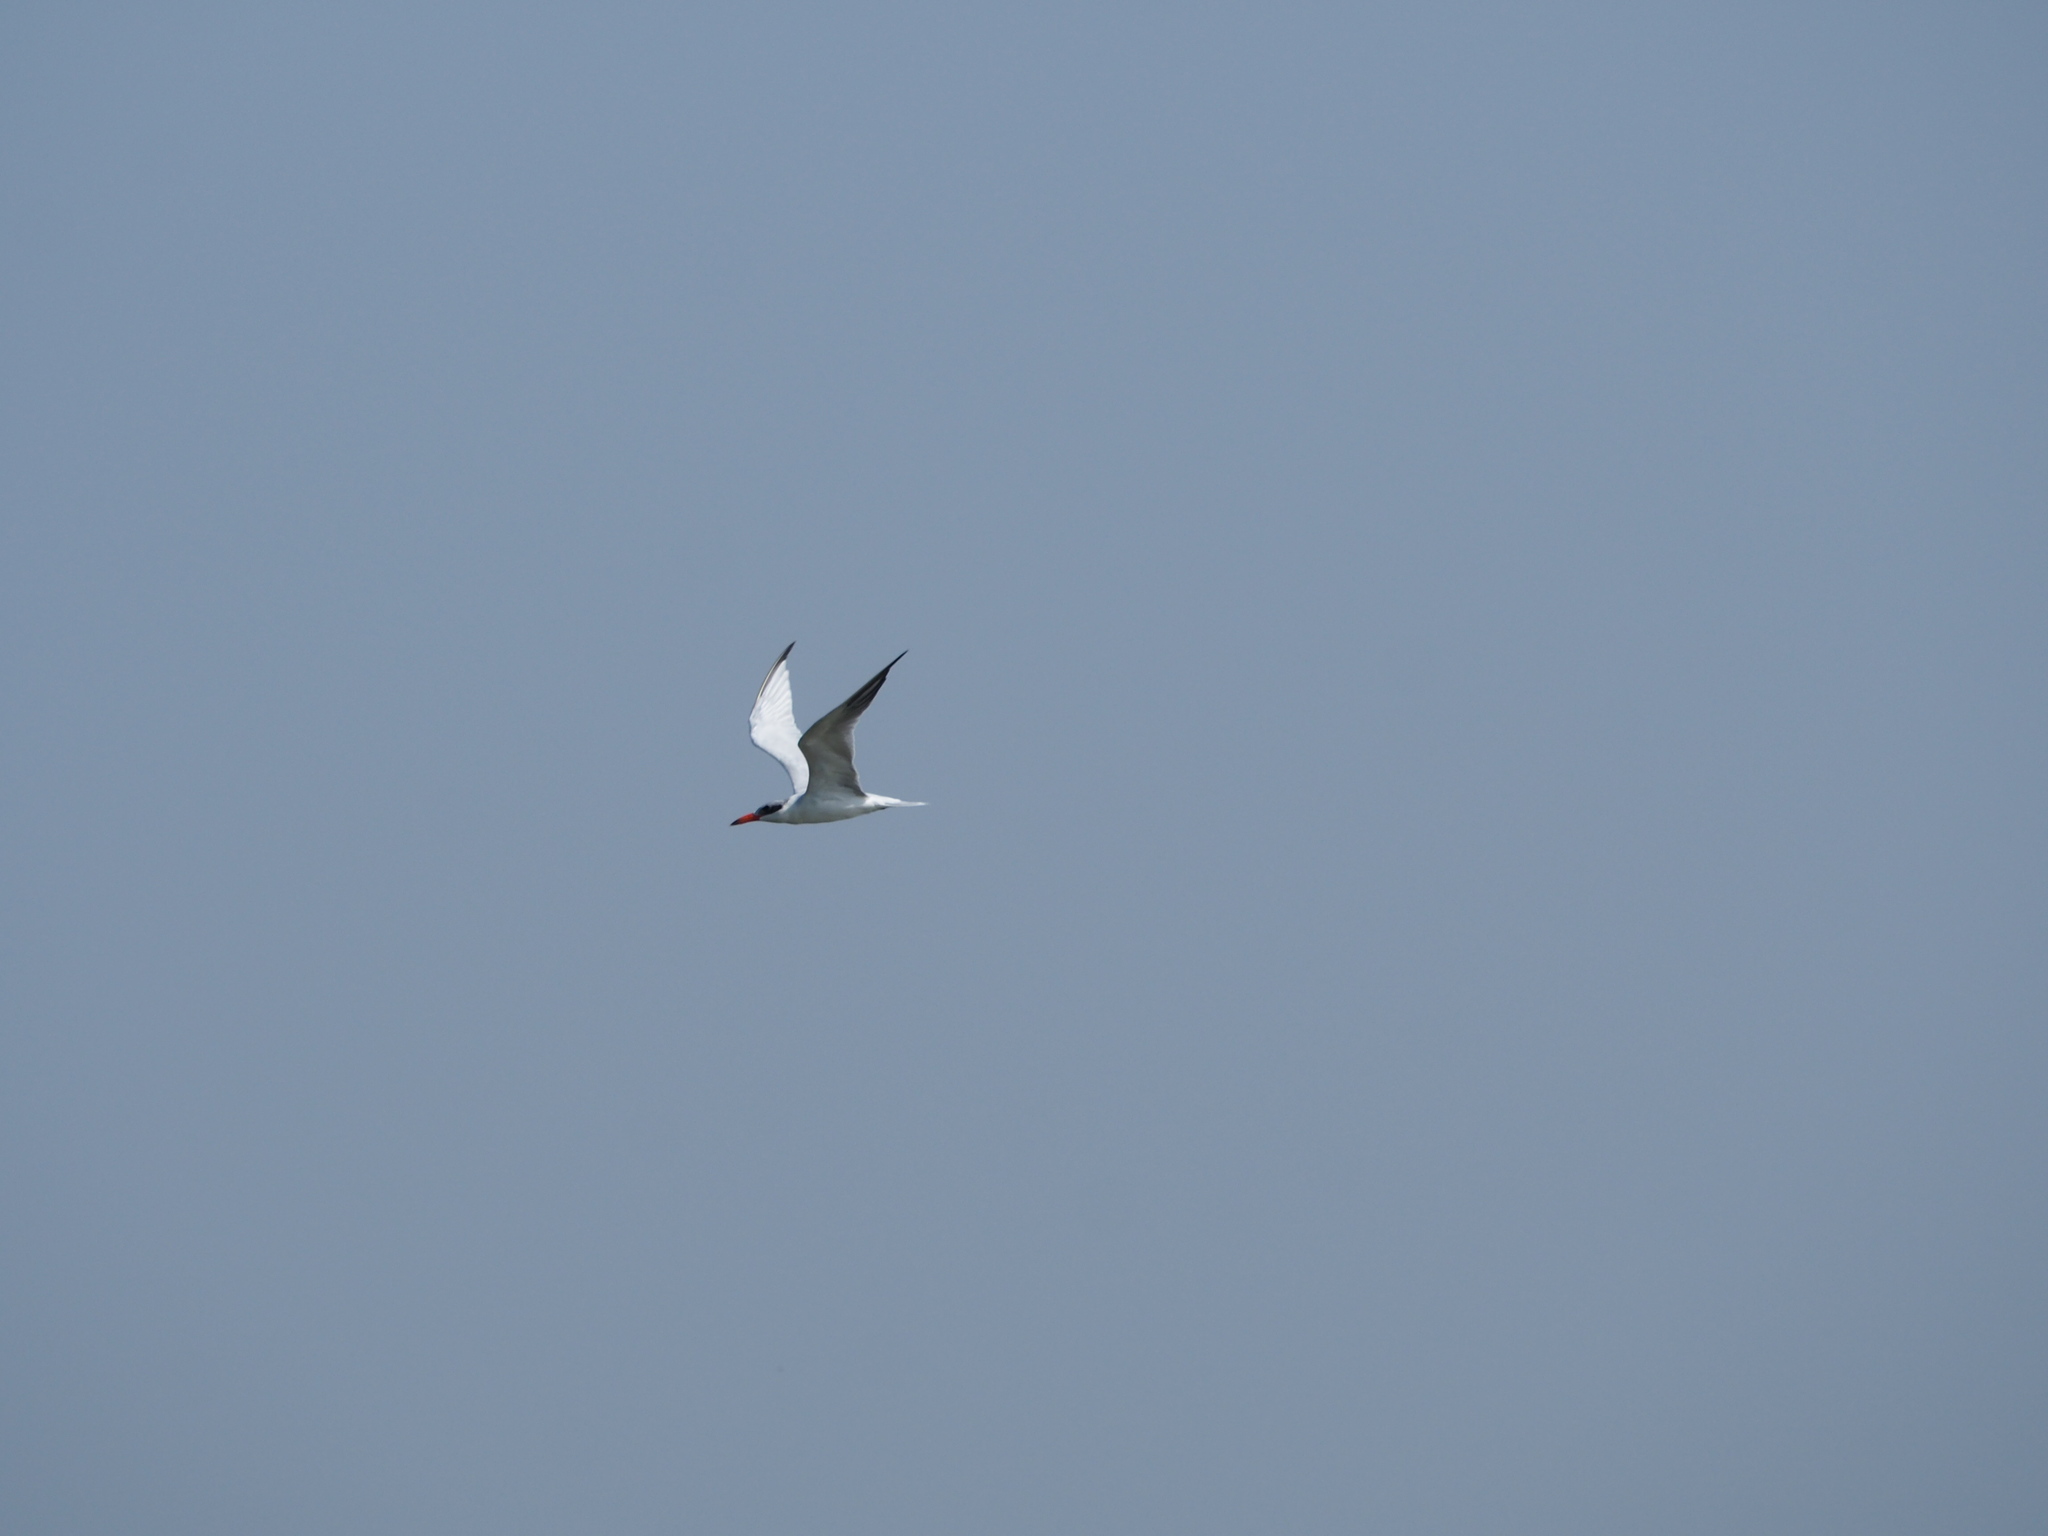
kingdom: Animalia
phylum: Chordata
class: Aves
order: Charadriiformes
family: Laridae
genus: Hydroprogne
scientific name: Hydroprogne caspia
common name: Caspian tern
